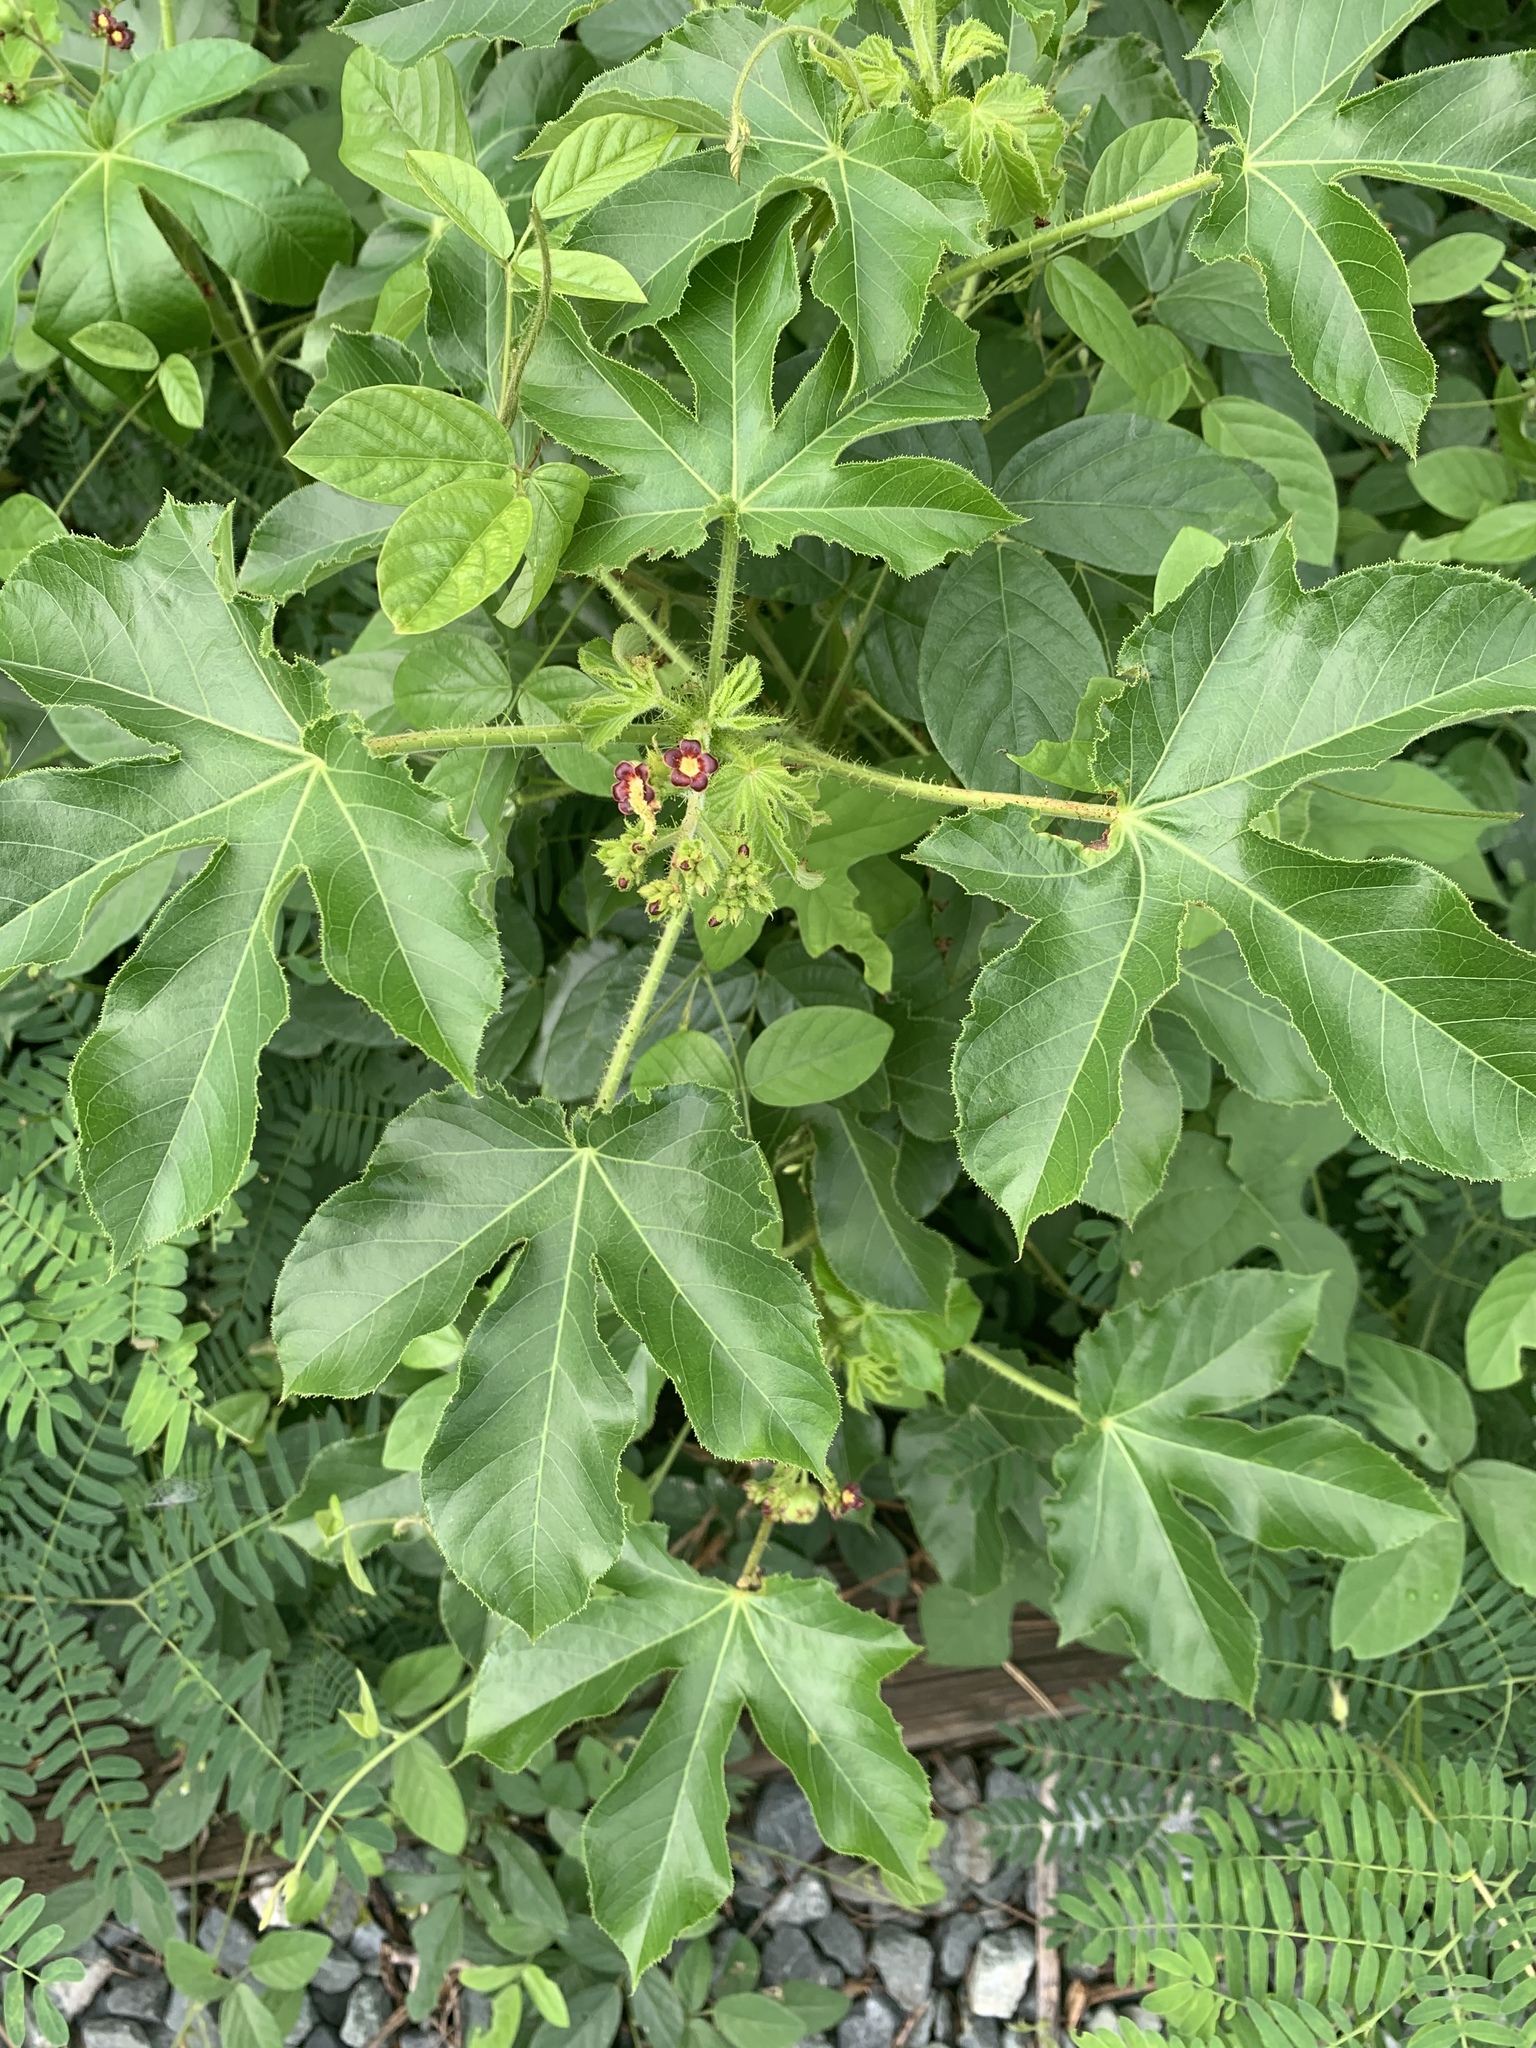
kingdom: Plantae
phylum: Tracheophyta
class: Magnoliopsida
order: Malpighiales
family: Euphorbiaceae
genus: Jatropha
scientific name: Jatropha gossypiifolia
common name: Bellyache bush
